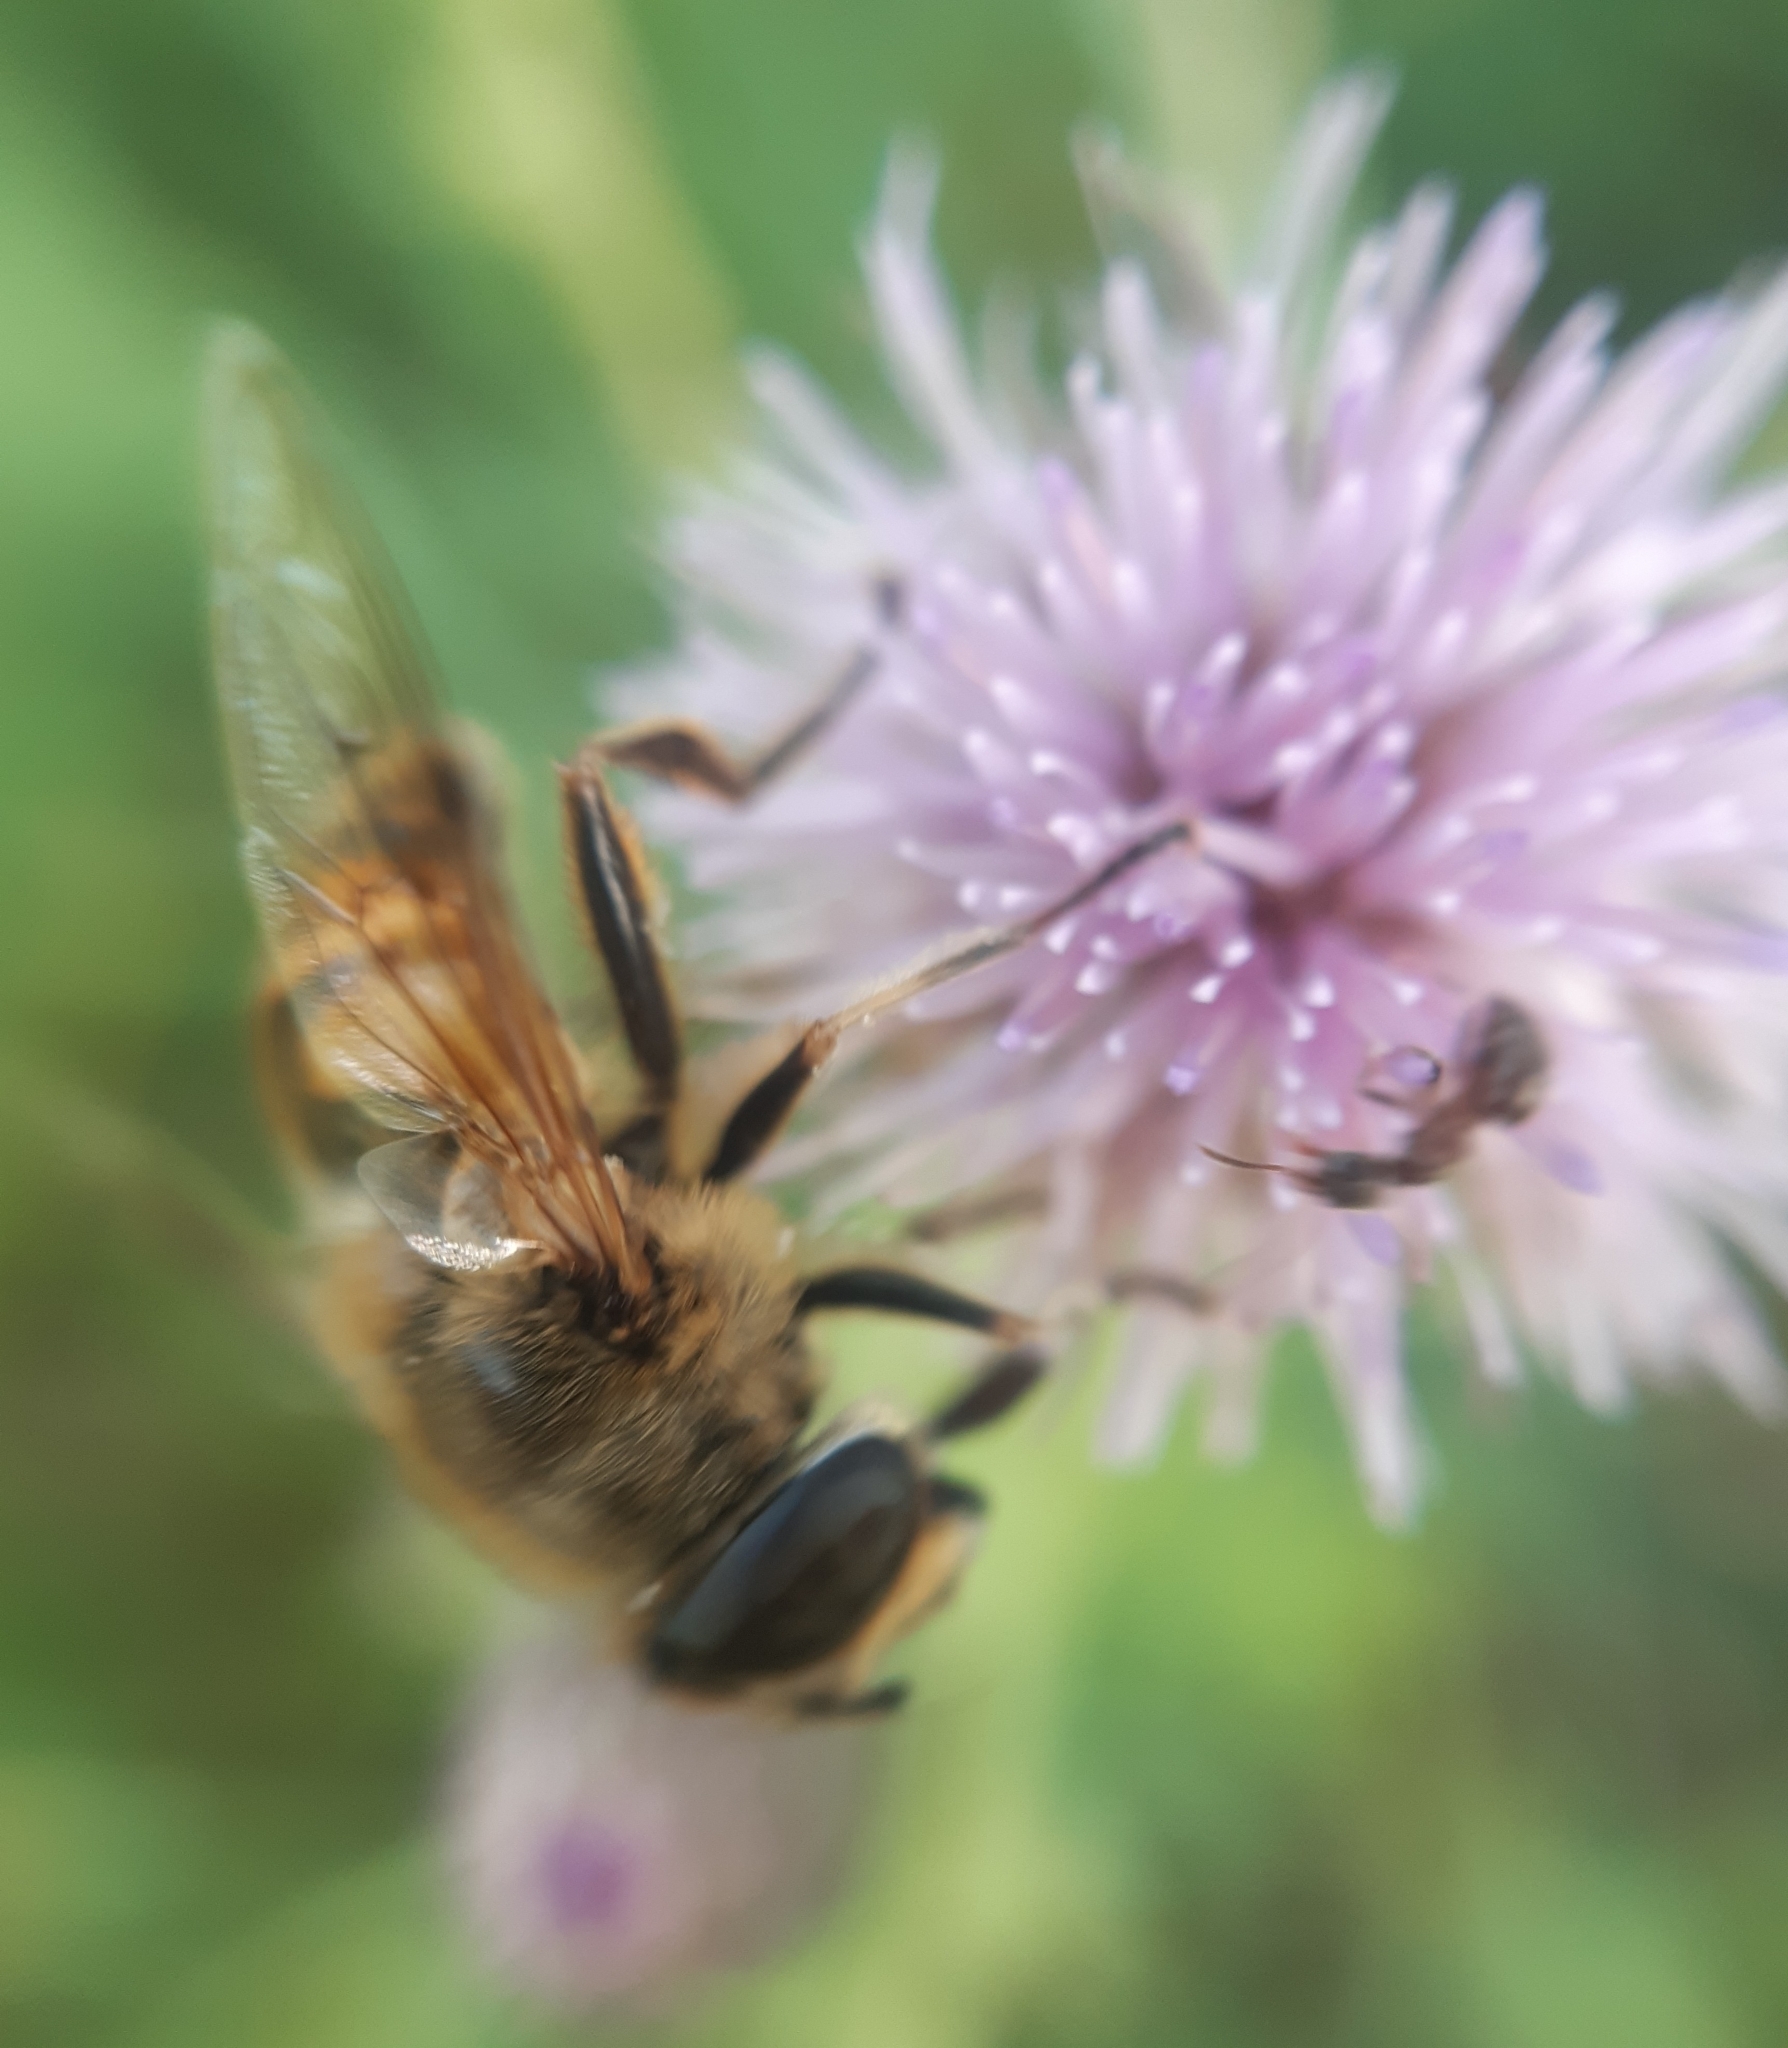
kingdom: Animalia
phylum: Arthropoda
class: Insecta
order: Diptera
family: Syrphidae
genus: Eristalis
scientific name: Eristalis tenax
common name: Drone fly
